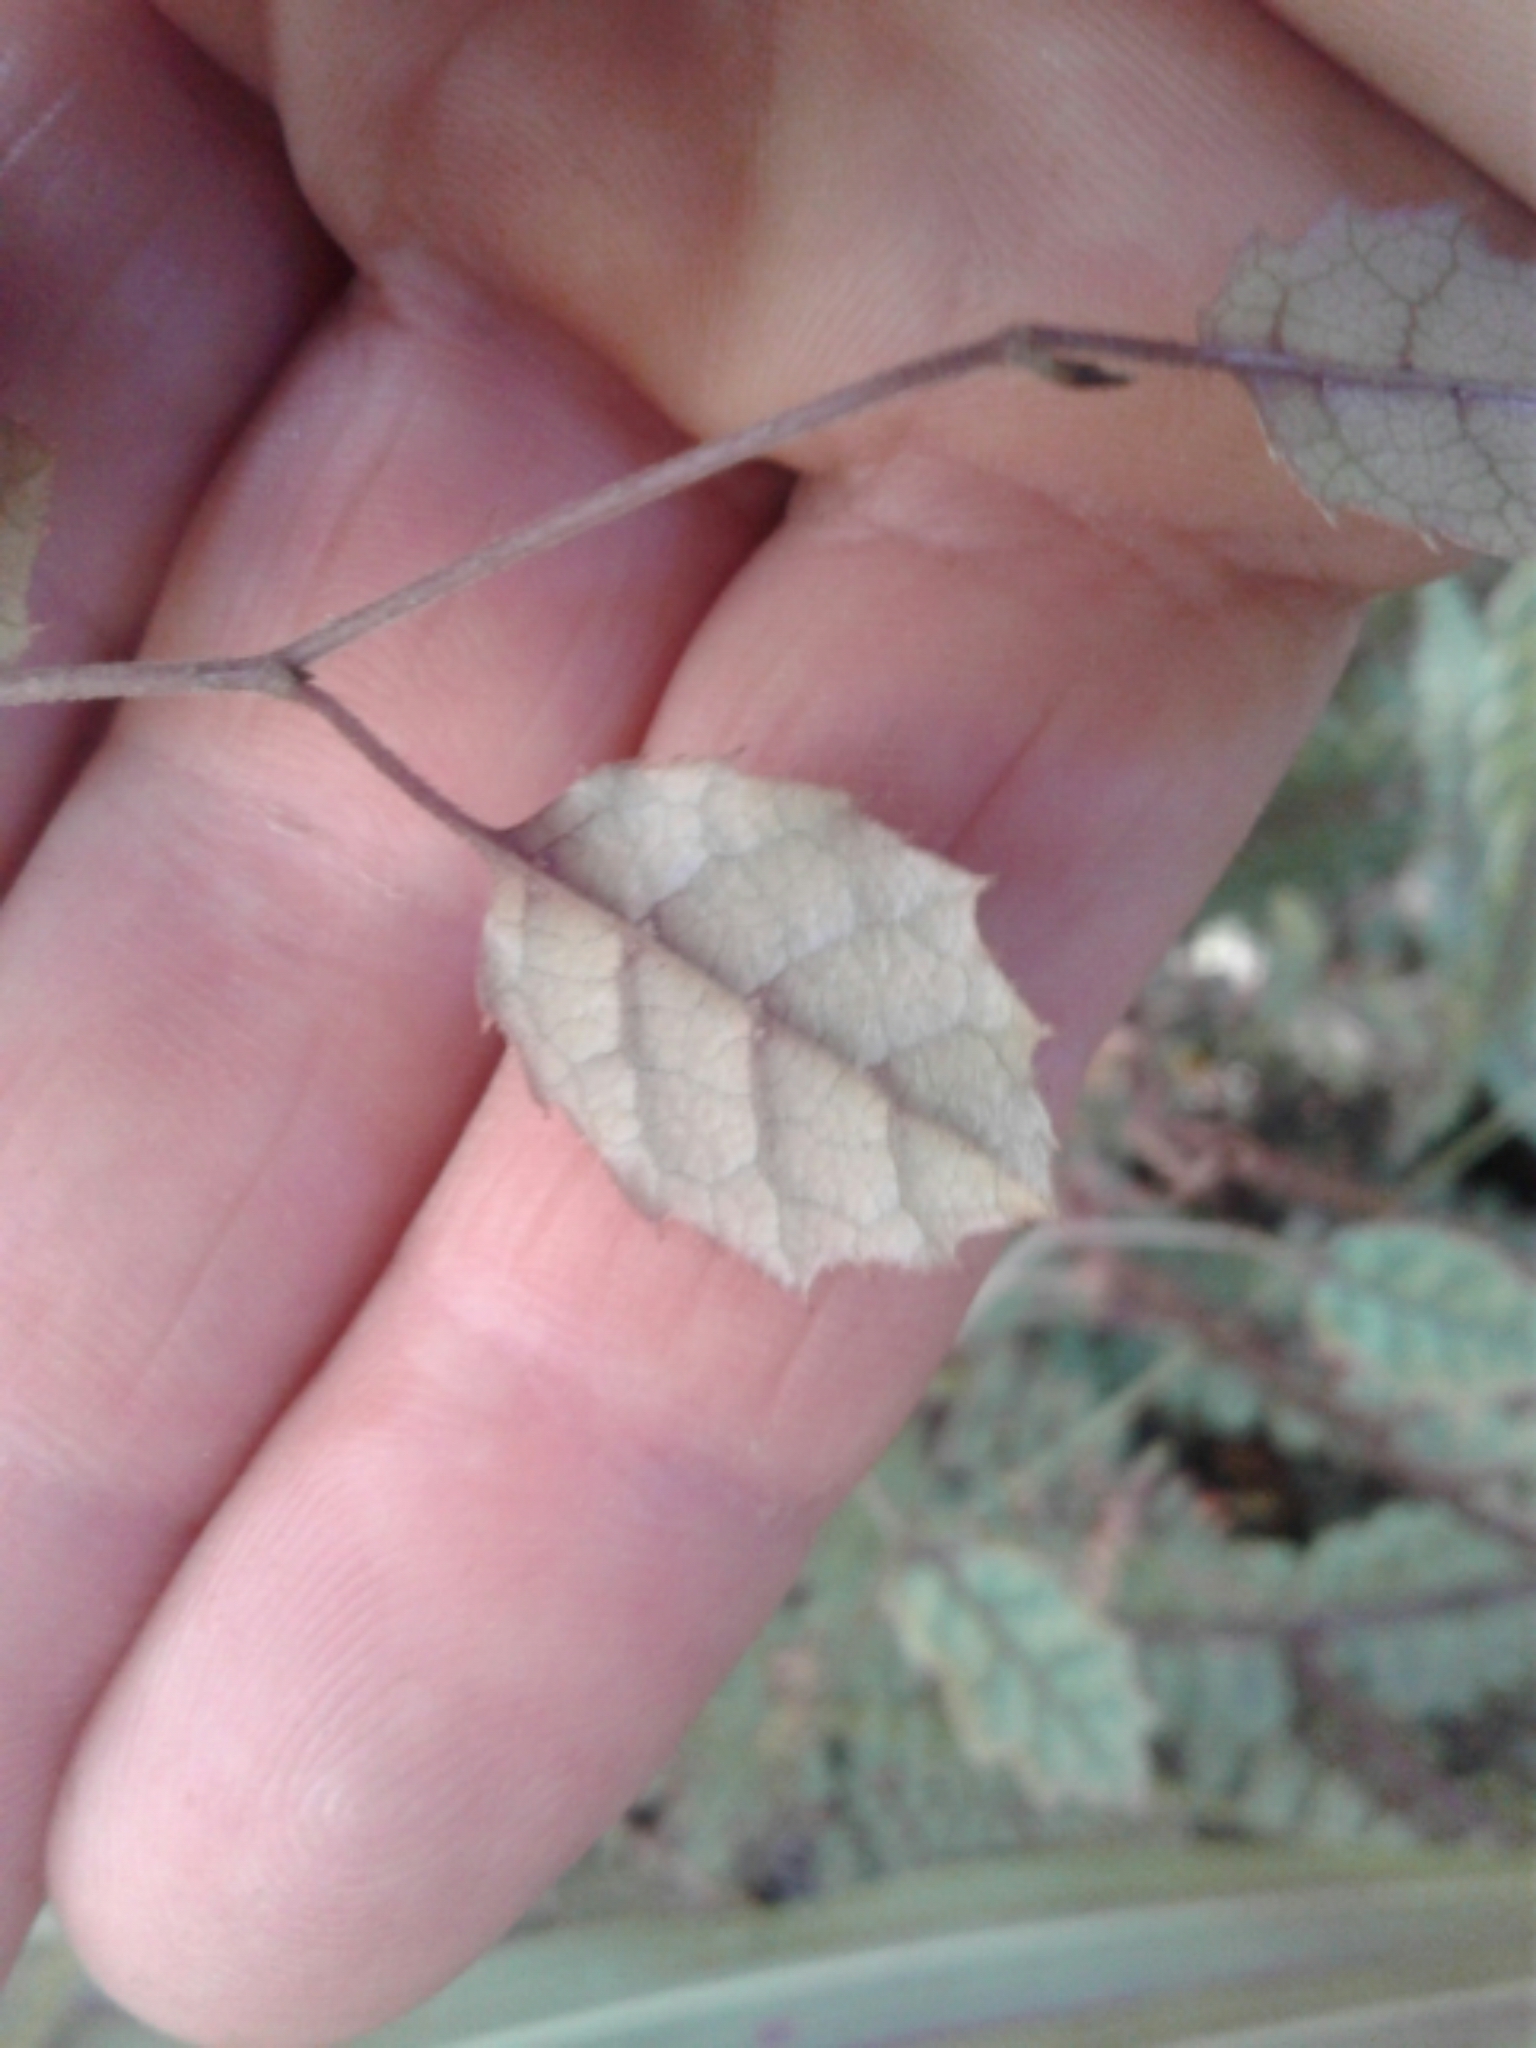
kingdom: Plantae
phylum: Tracheophyta
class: Magnoliopsida
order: Asterales
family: Rousseaceae
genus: Carpodetus
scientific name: Carpodetus serratus
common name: White mapau
